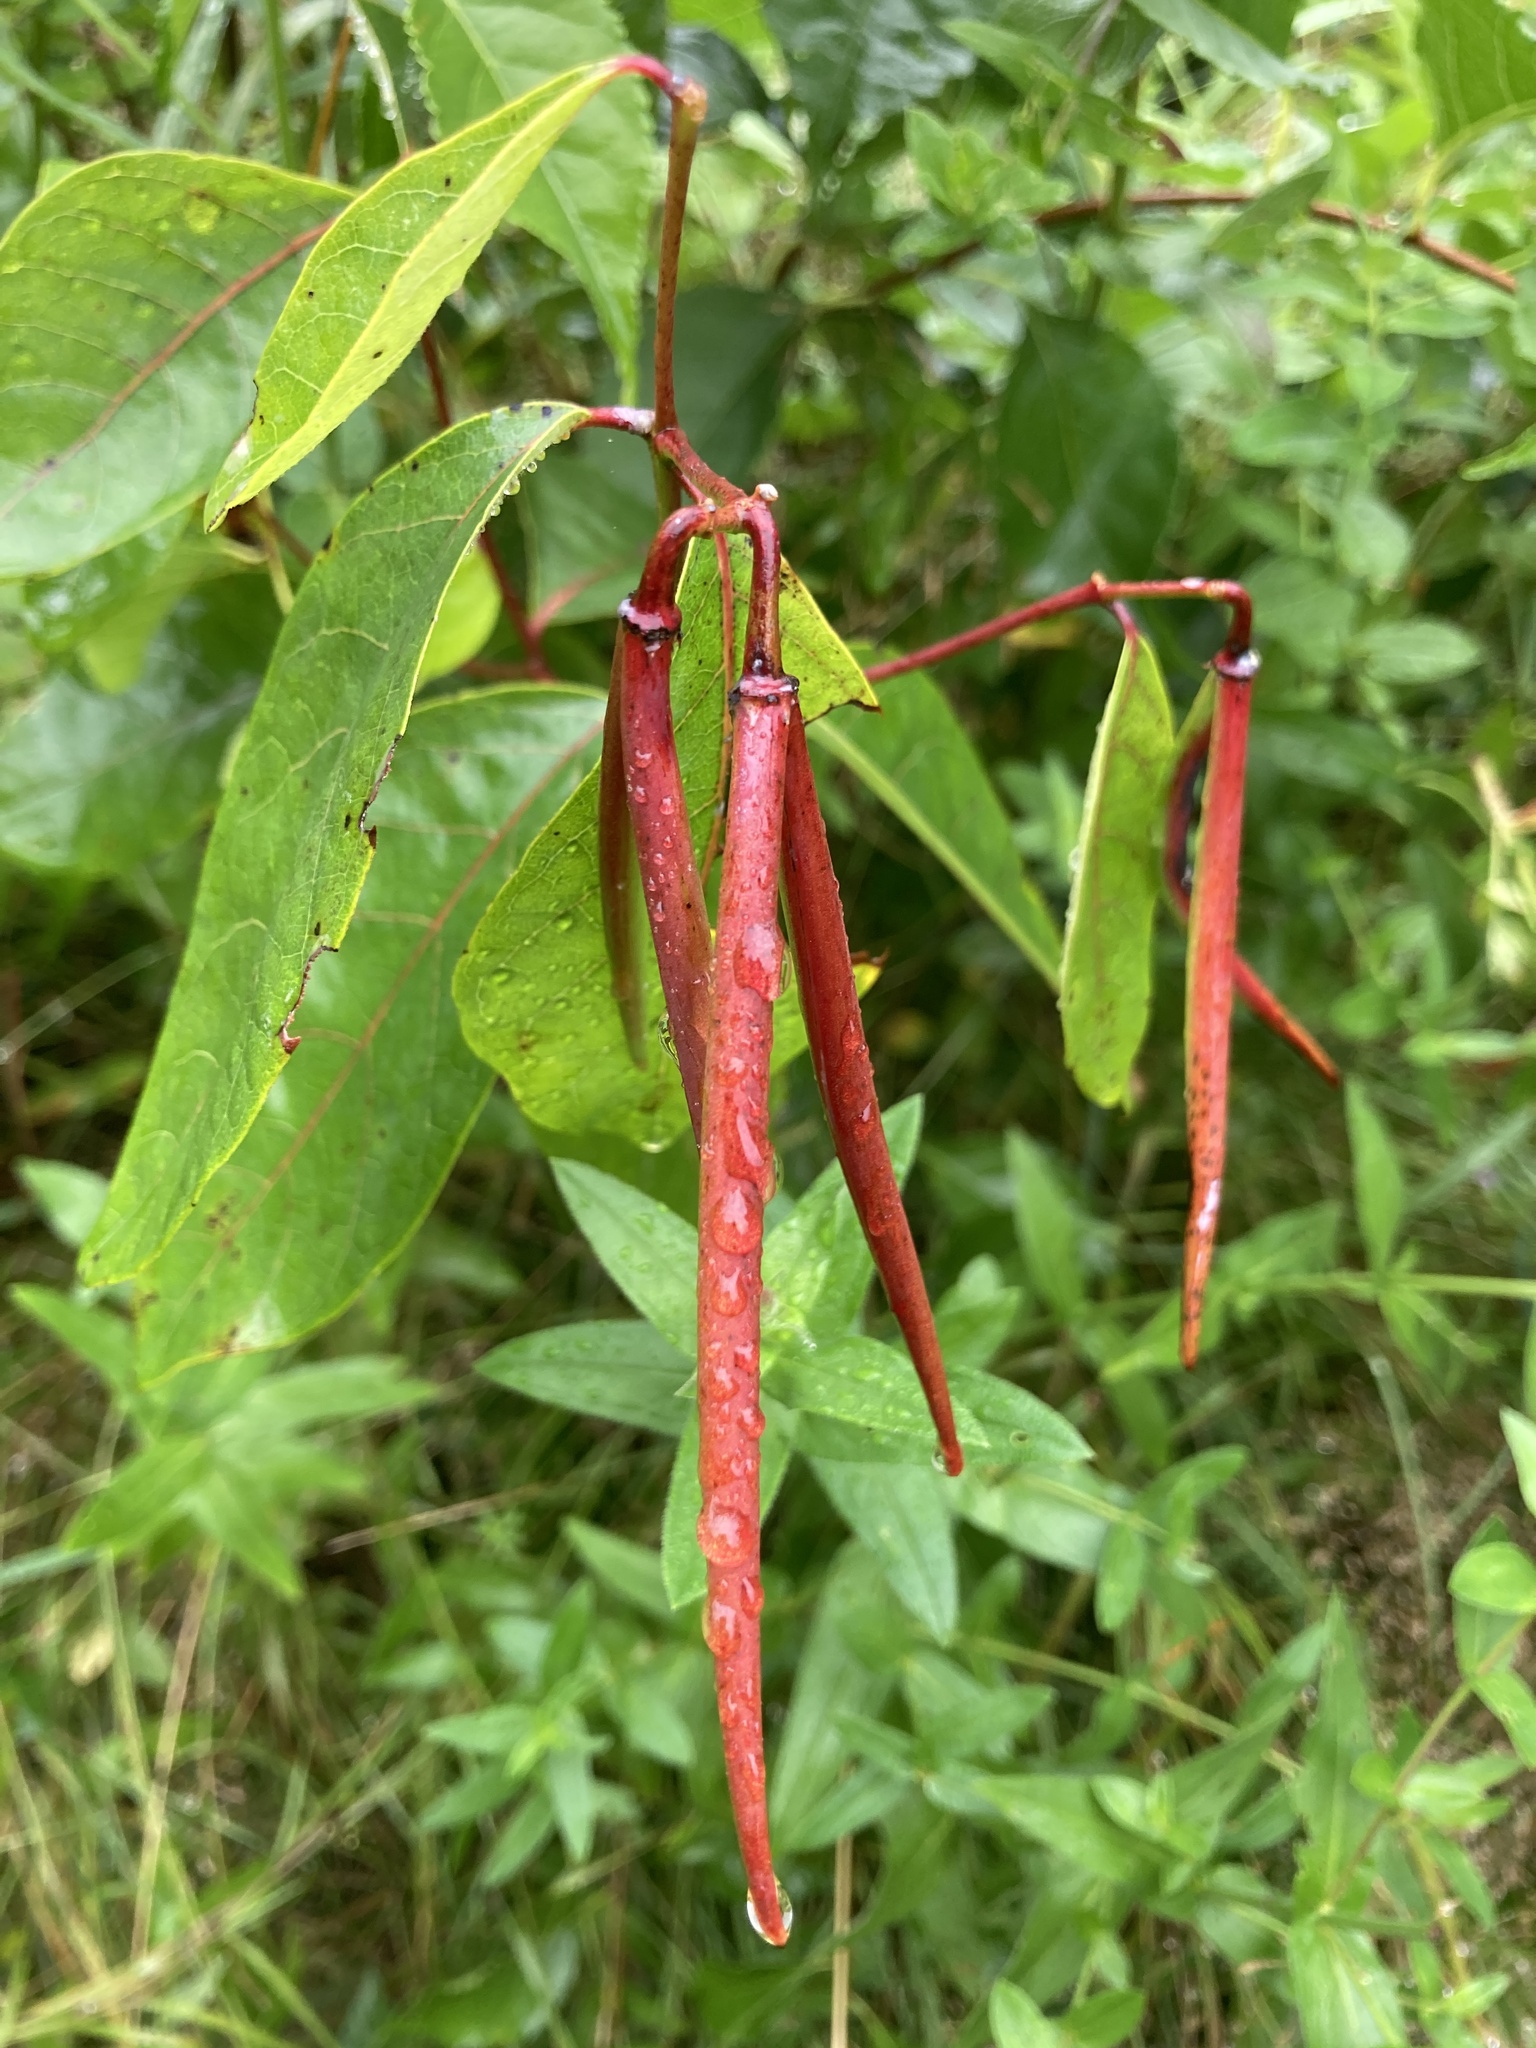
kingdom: Plantae
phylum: Tracheophyta
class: Magnoliopsida
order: Gentianales
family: Apocynaceae
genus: Apocynum
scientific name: Apocynum androsaemifolium
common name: Spreading dogbane
